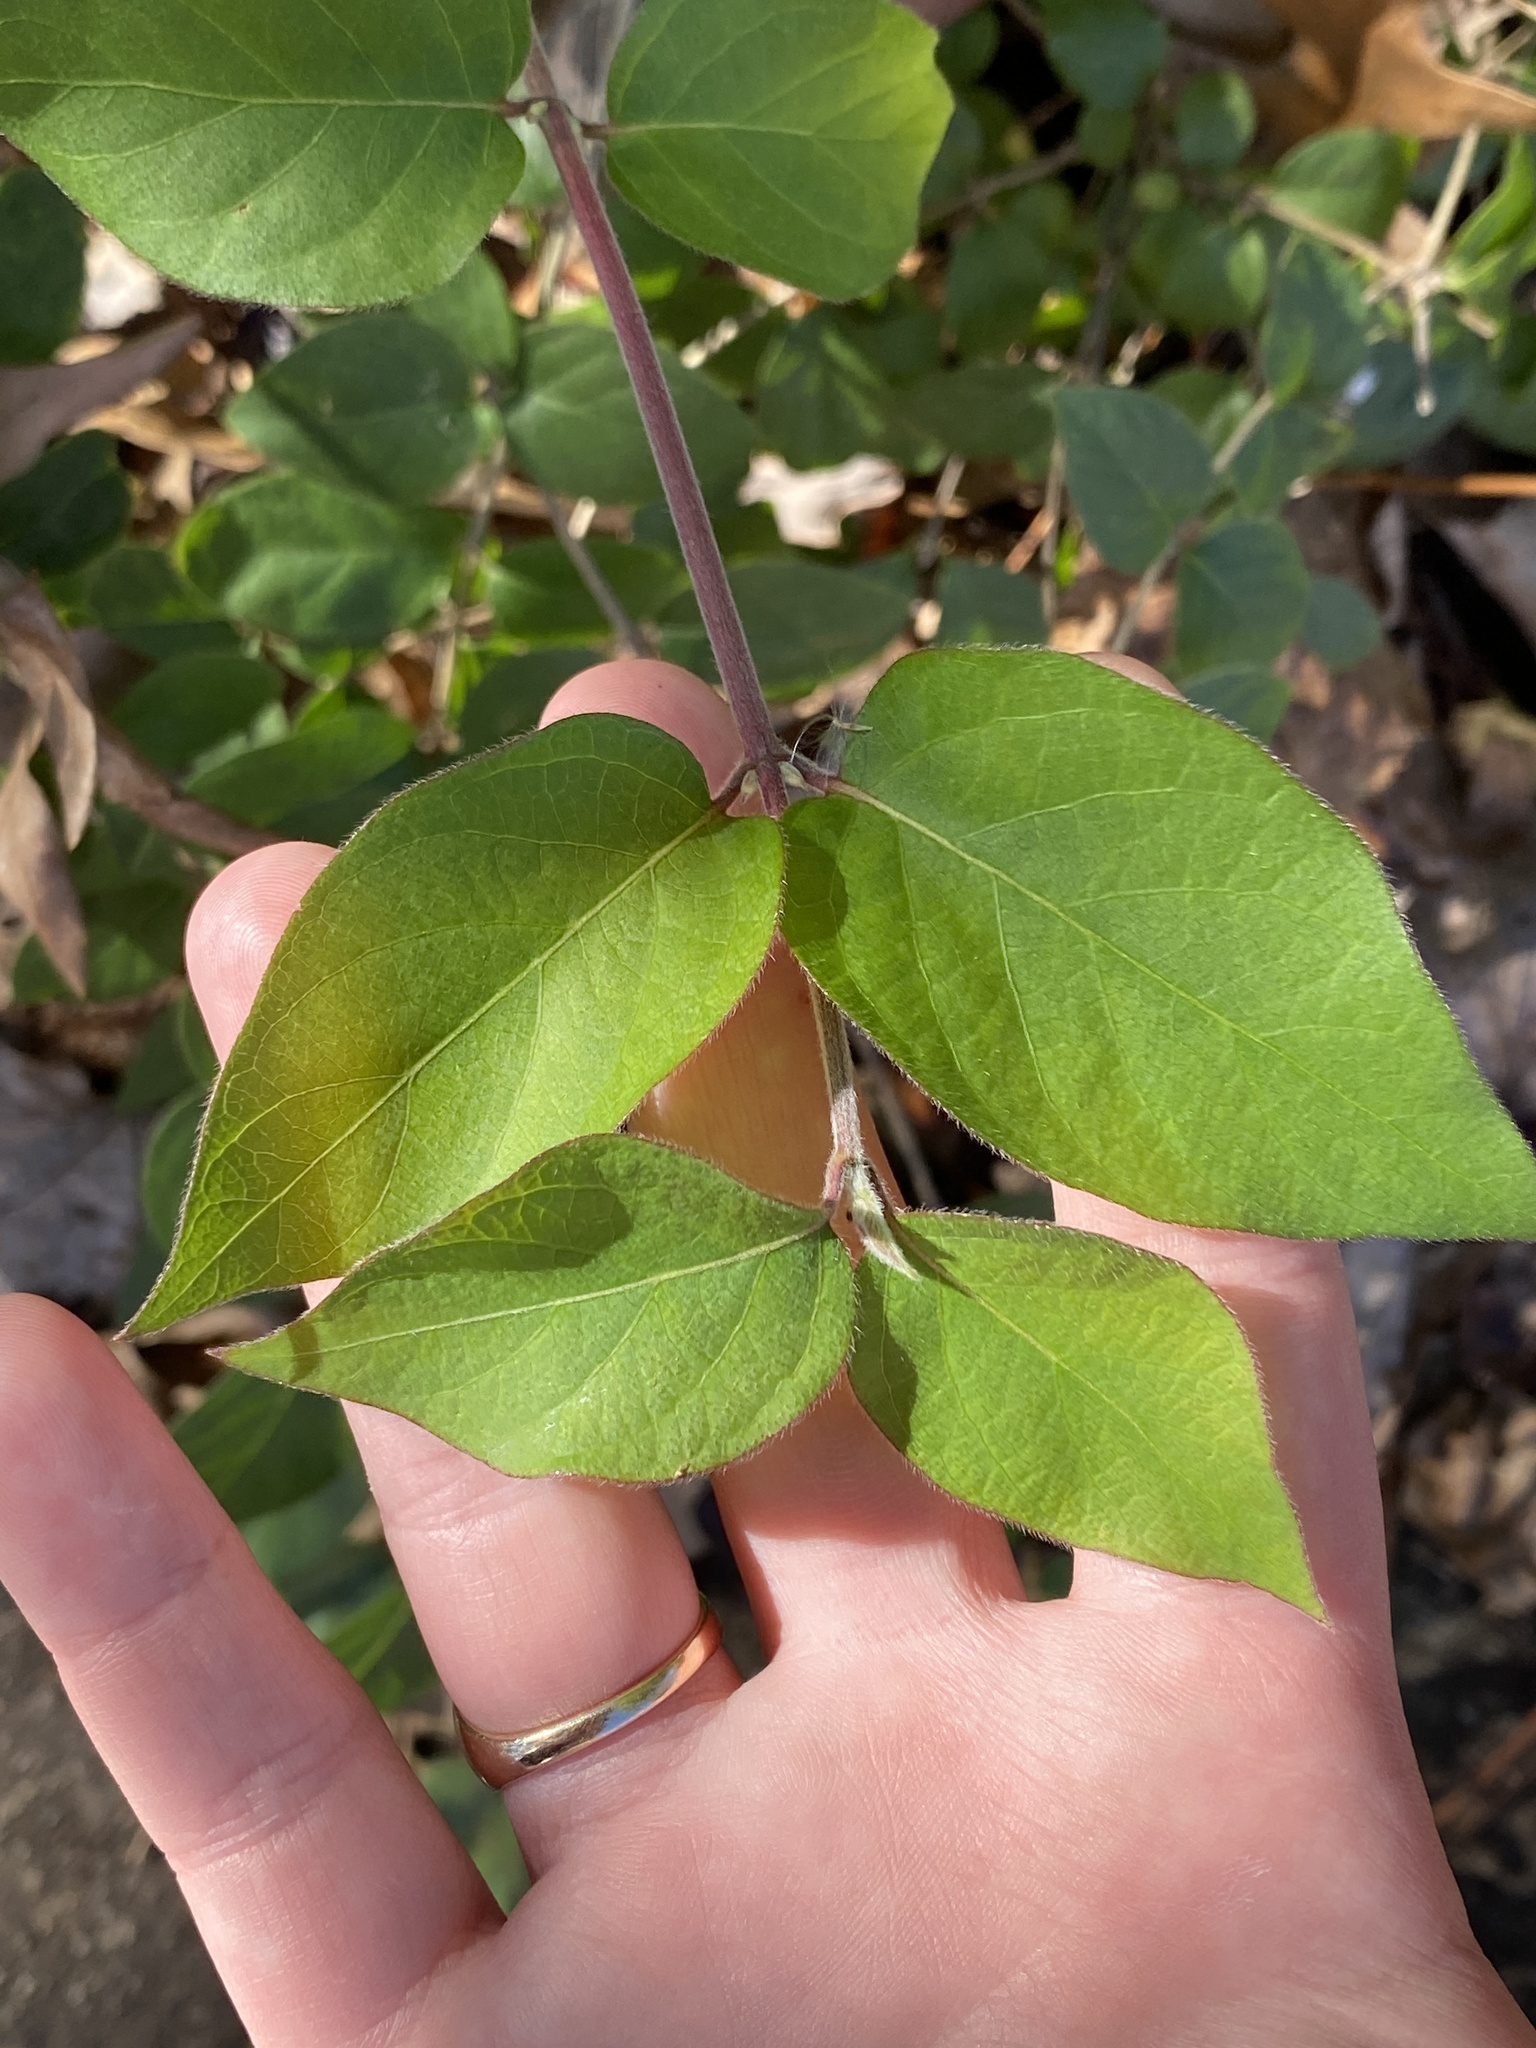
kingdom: Plantae
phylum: Tracheophyta
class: Magnoliopsida
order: Dipsacales
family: Caprifoliaceae
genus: Lonicera
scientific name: Lonicera maackii
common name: Amur honeysuckle
